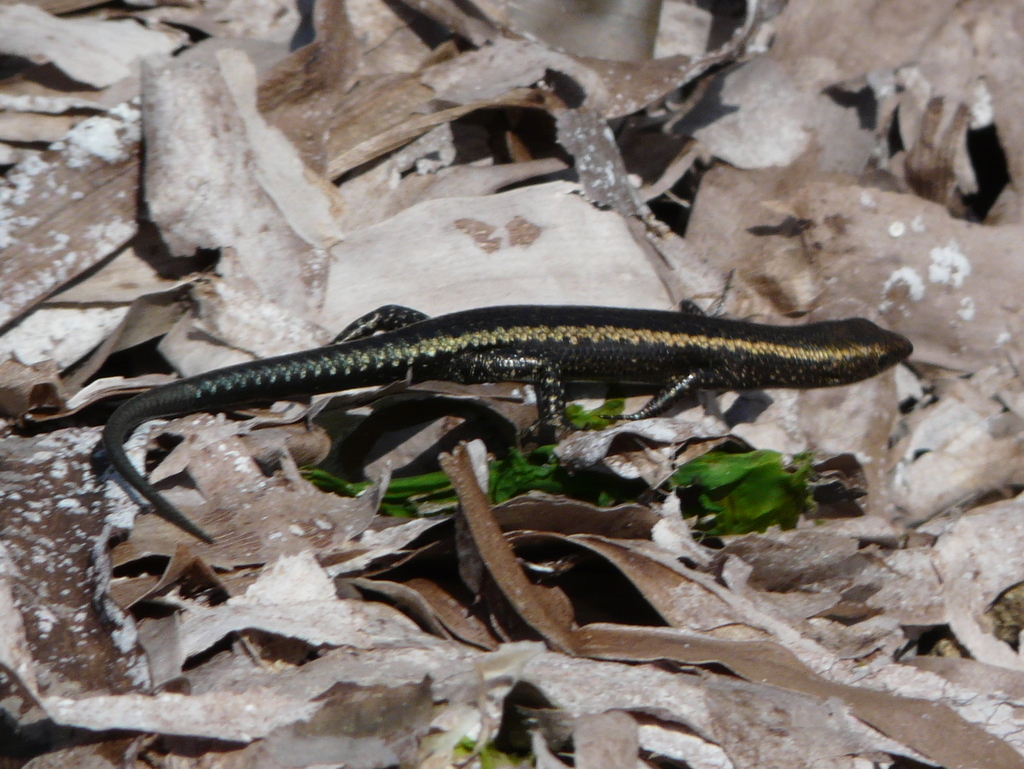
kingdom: Animalia
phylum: Chordata
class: Squamata
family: Scincidae
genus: Cryptoblepharus
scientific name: Cryptoblepharus africanus
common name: African coral rag skink
